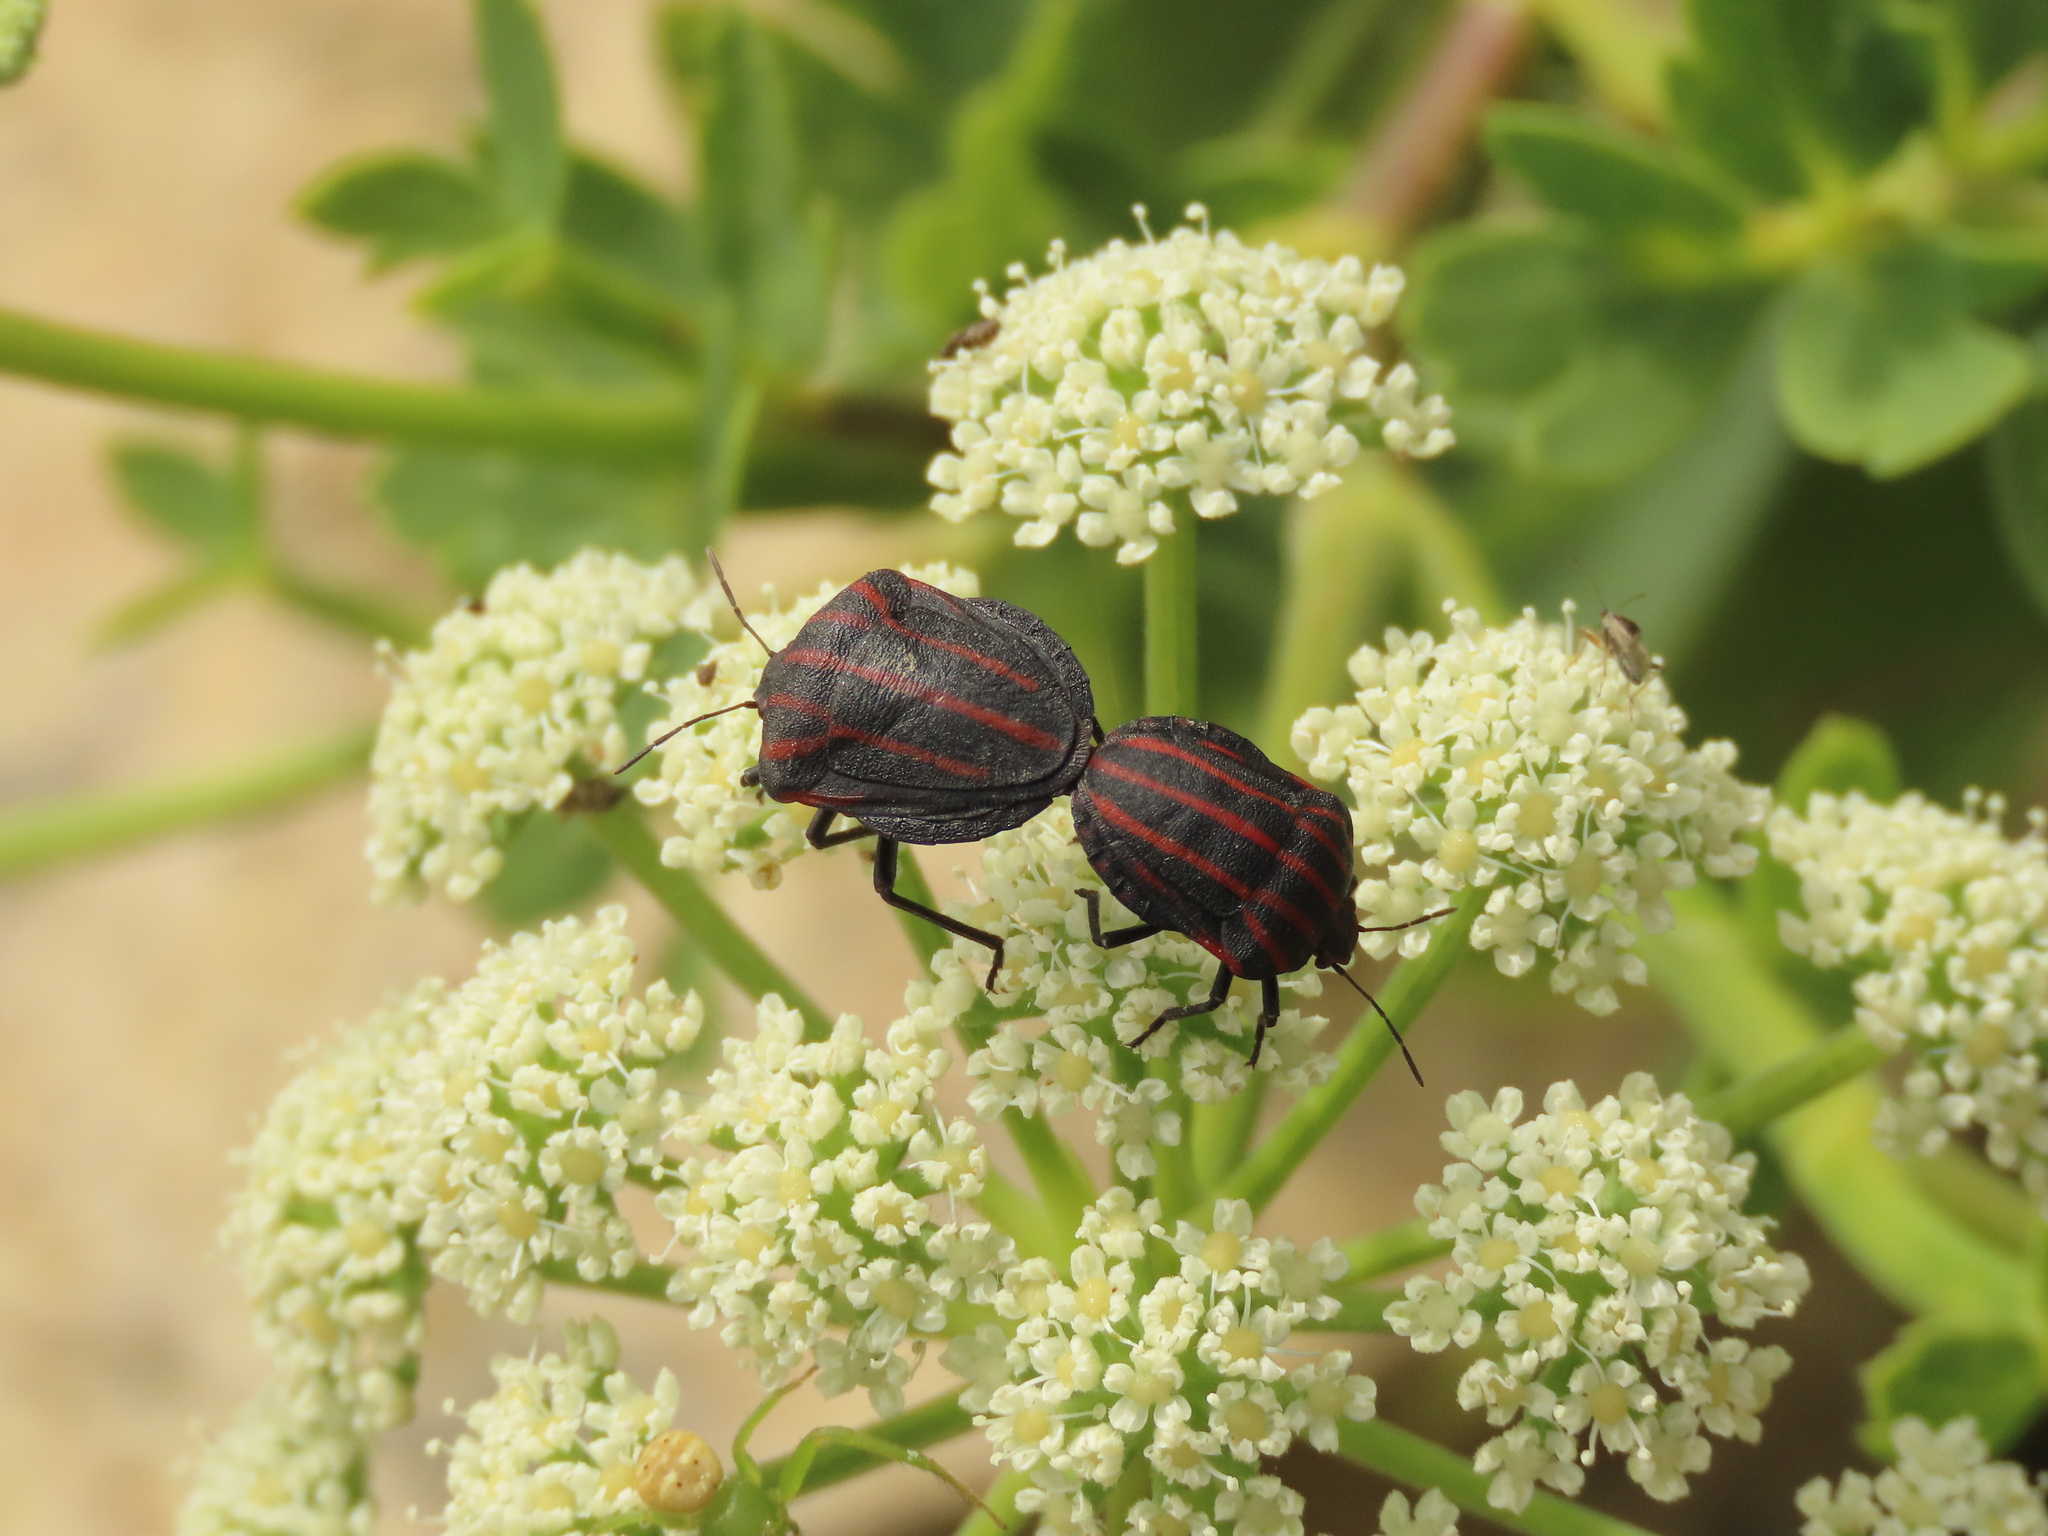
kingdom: Animalia
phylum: Arthropoda
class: Insecta
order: Hemiptera
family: Pentatomidae
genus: Graphosoma
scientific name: Graphosoma rubrolineatum
